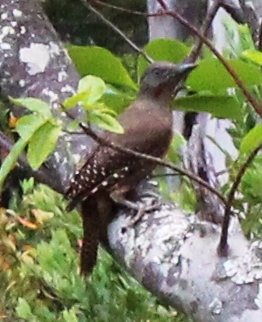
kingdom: Animalia
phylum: Chordata
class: Aves
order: Piciformes
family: Picidae
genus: Geocolaptes
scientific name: Geocolaptes olivaceus
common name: Ground woodpecker
